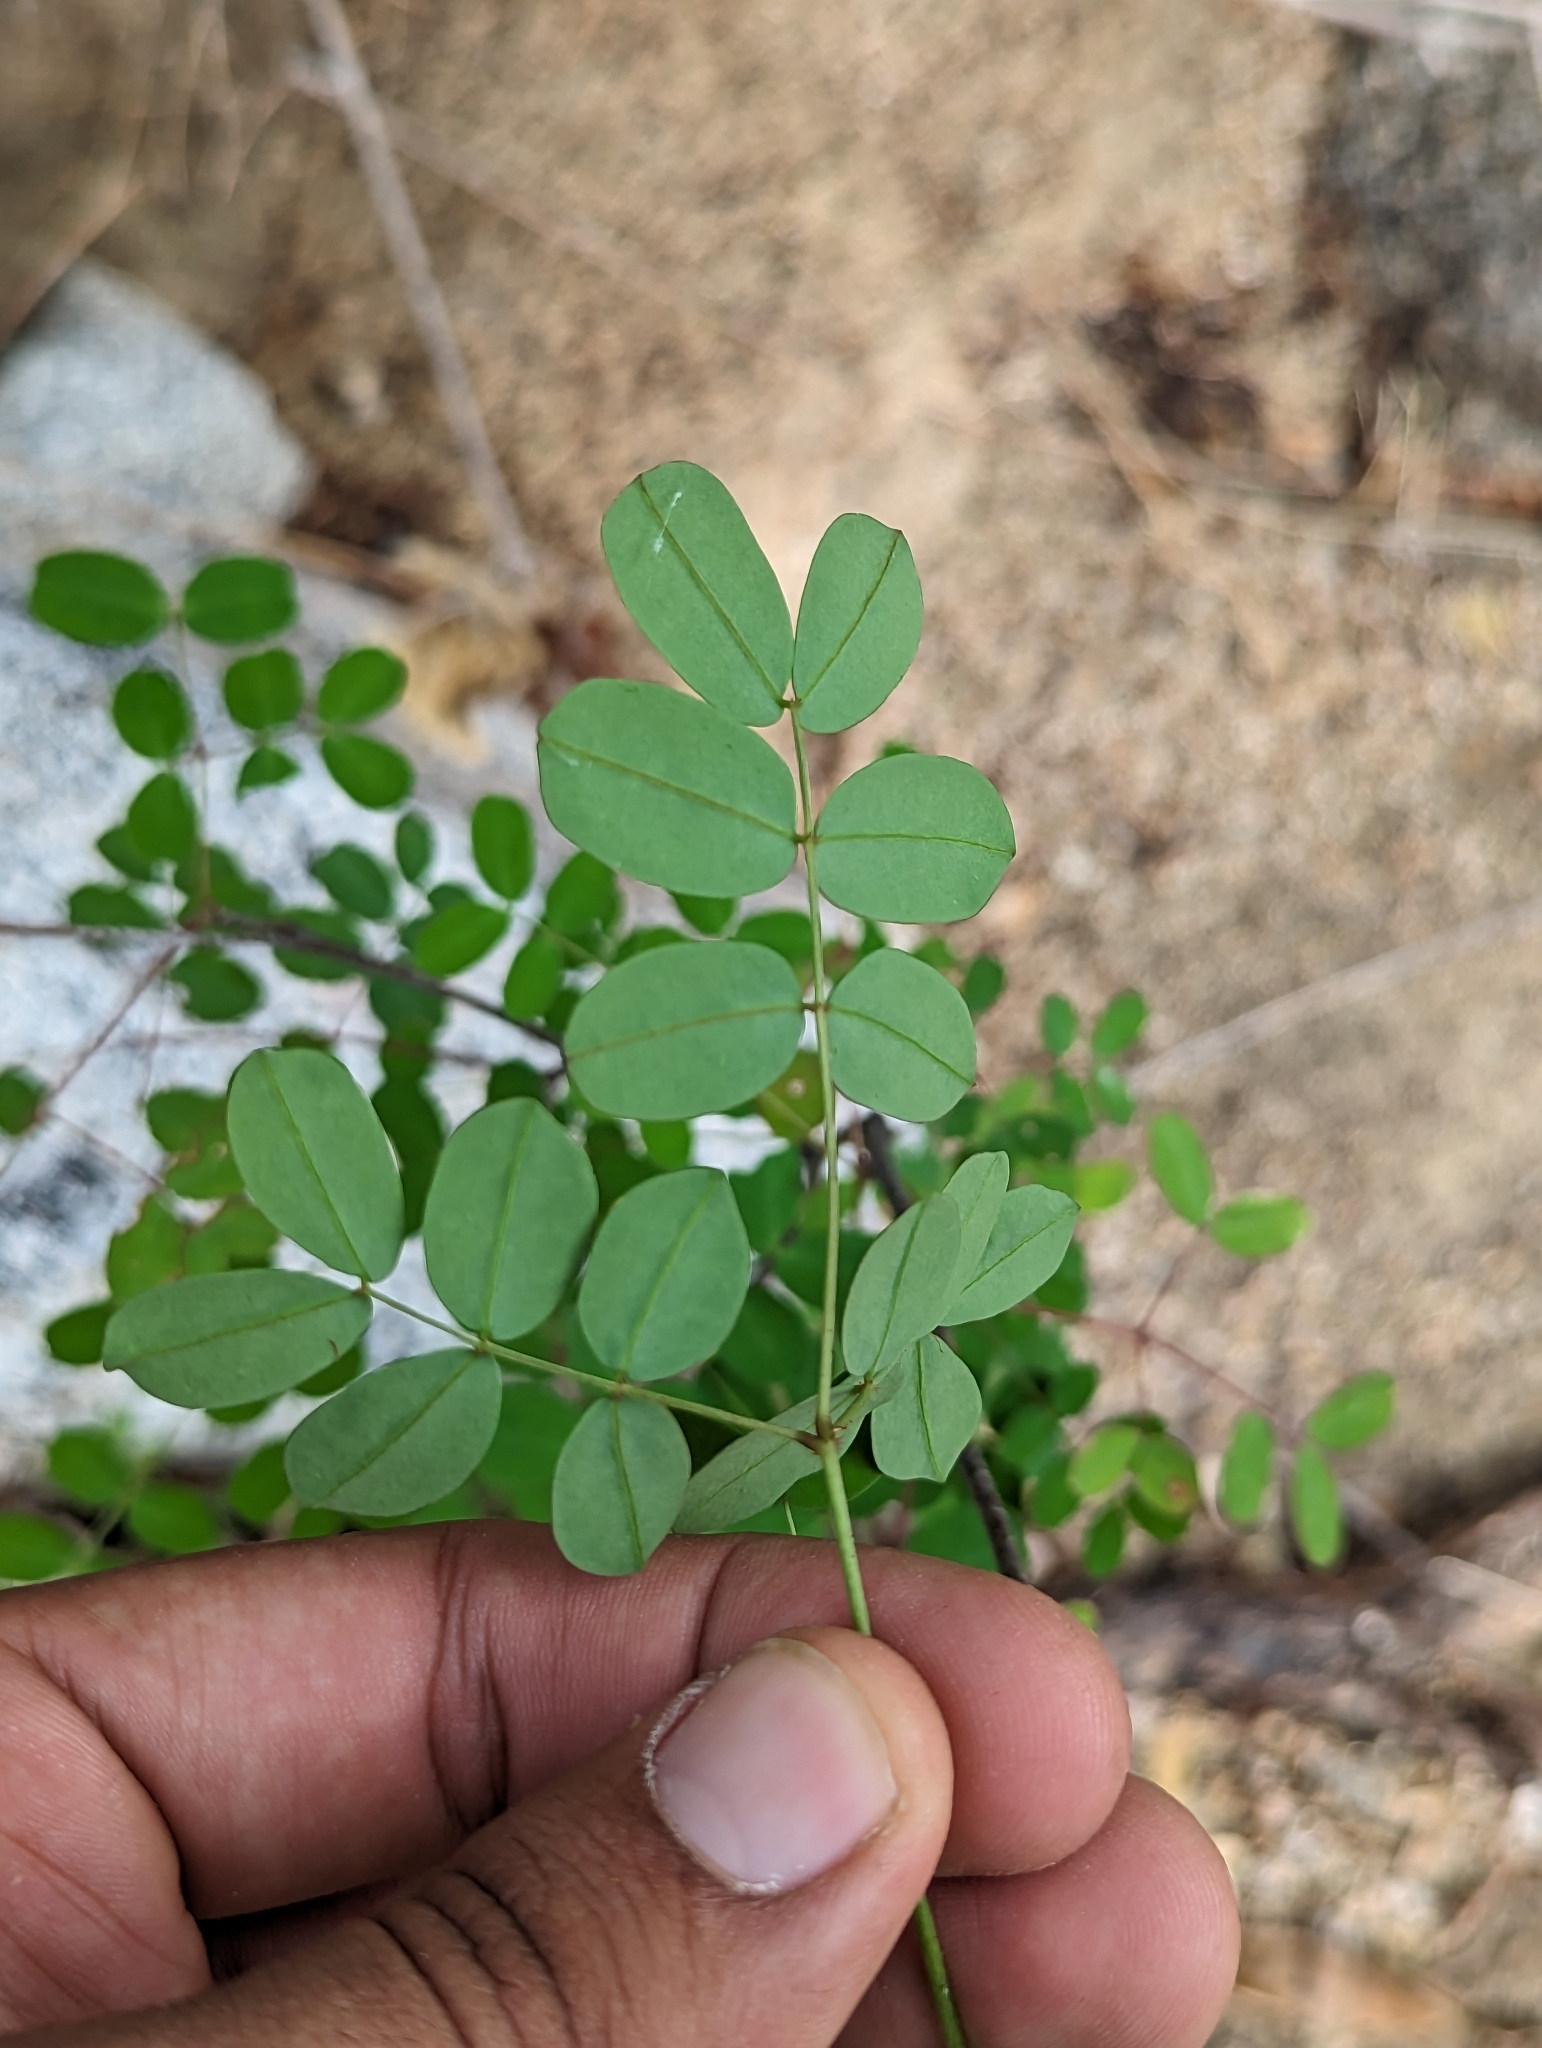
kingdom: Plantae
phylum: Tracheophyta
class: Magnoliopsida
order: Fabales
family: Fabaceae
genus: Erythrostemon
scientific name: Erythrostemon pannosus
